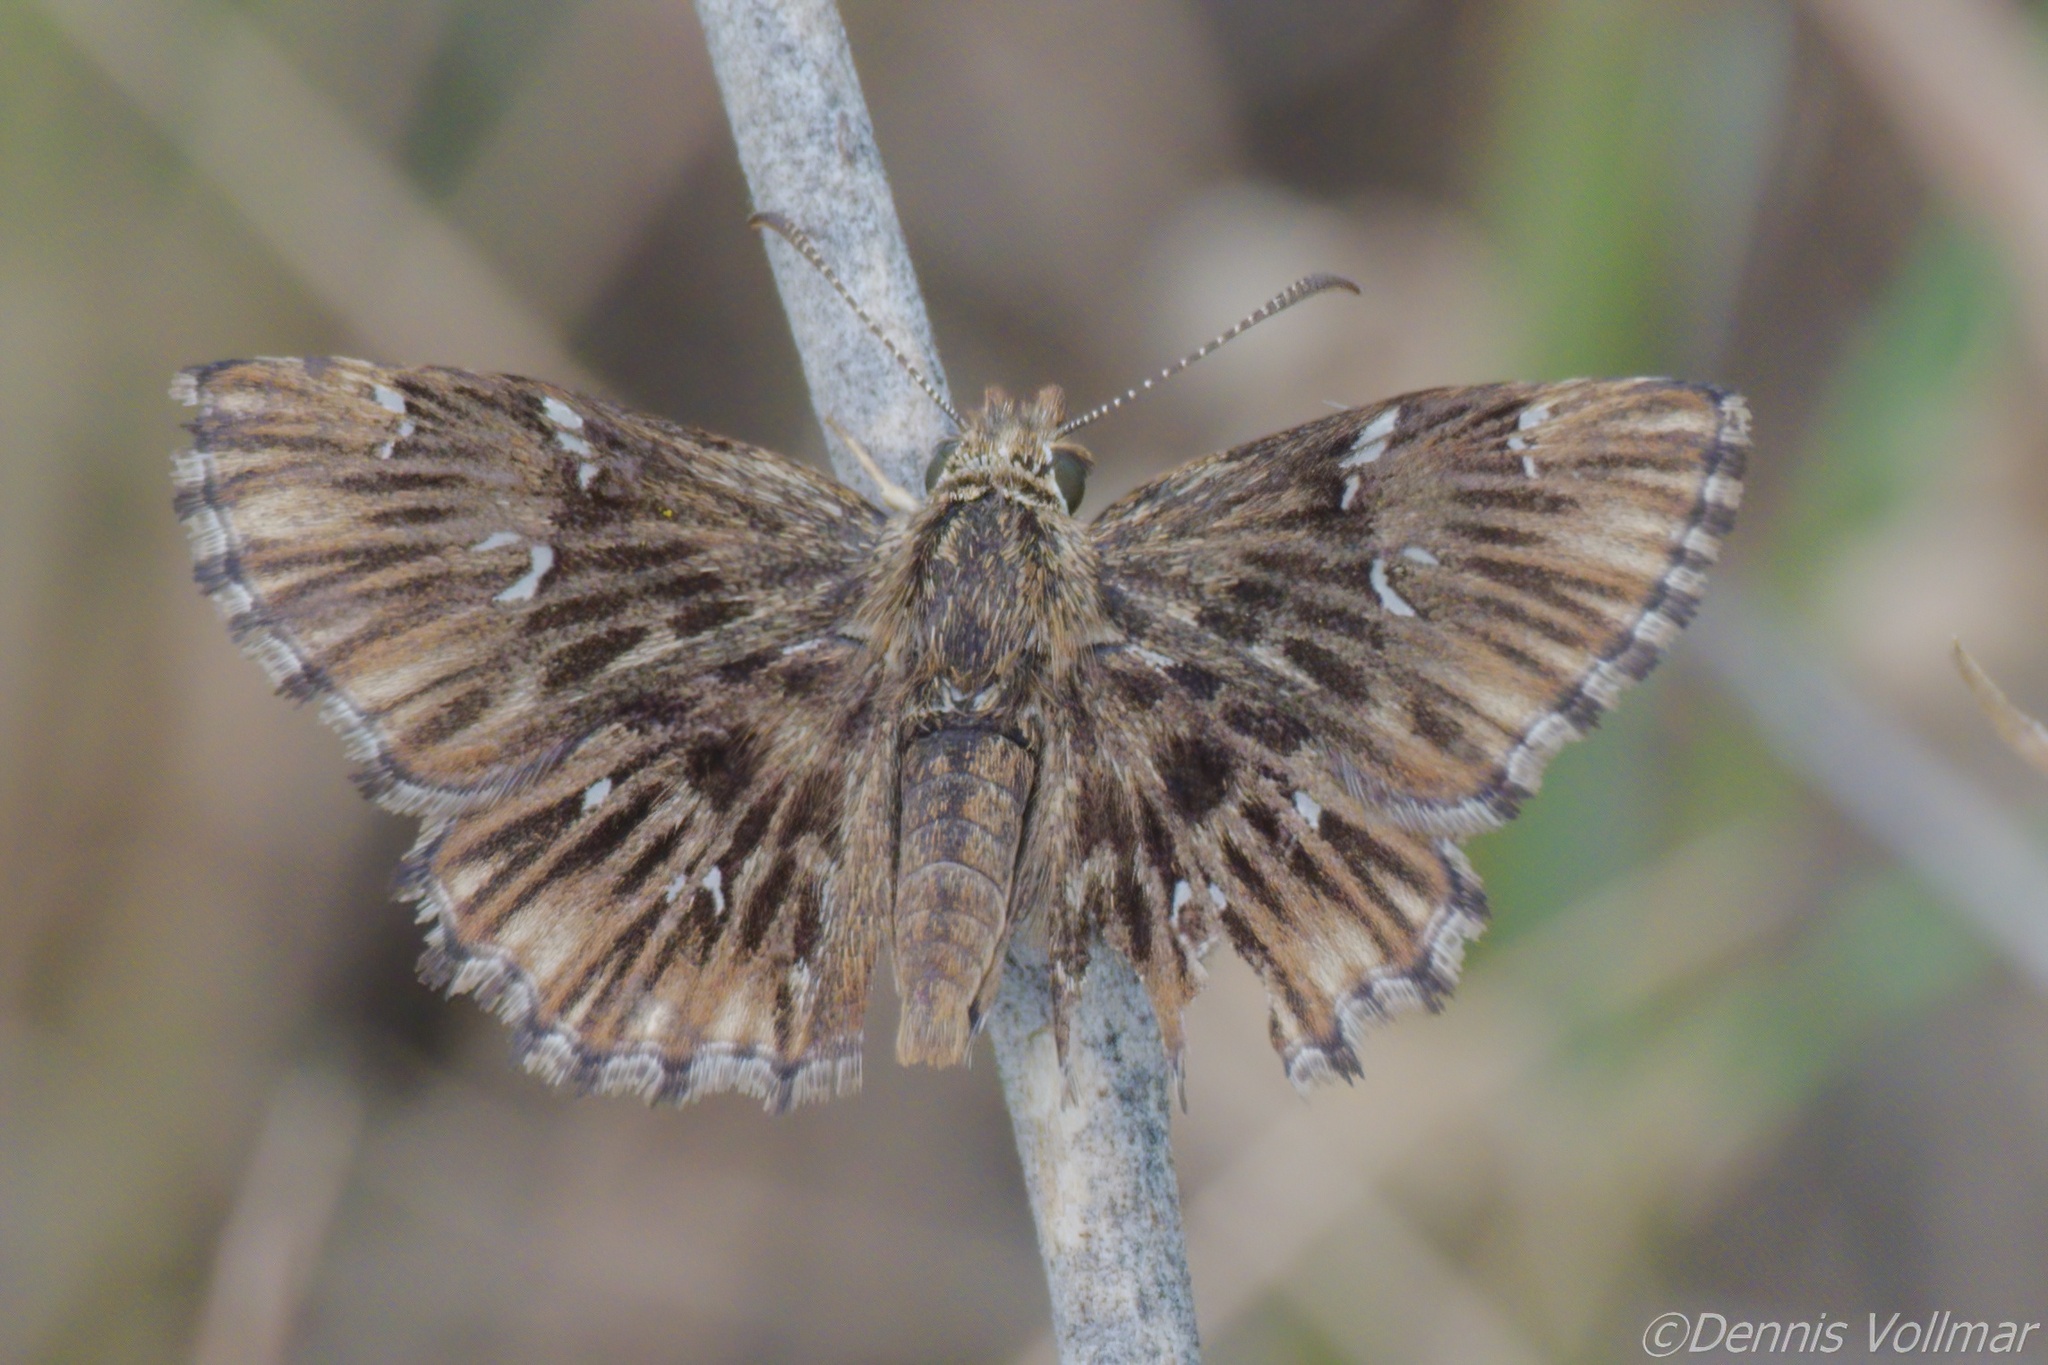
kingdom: Animalia
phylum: Arthropoda
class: Insecta
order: Lepidoptera
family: Hesperiidae
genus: Celotes
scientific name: Celotes nessus
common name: Common streaky-skipper
